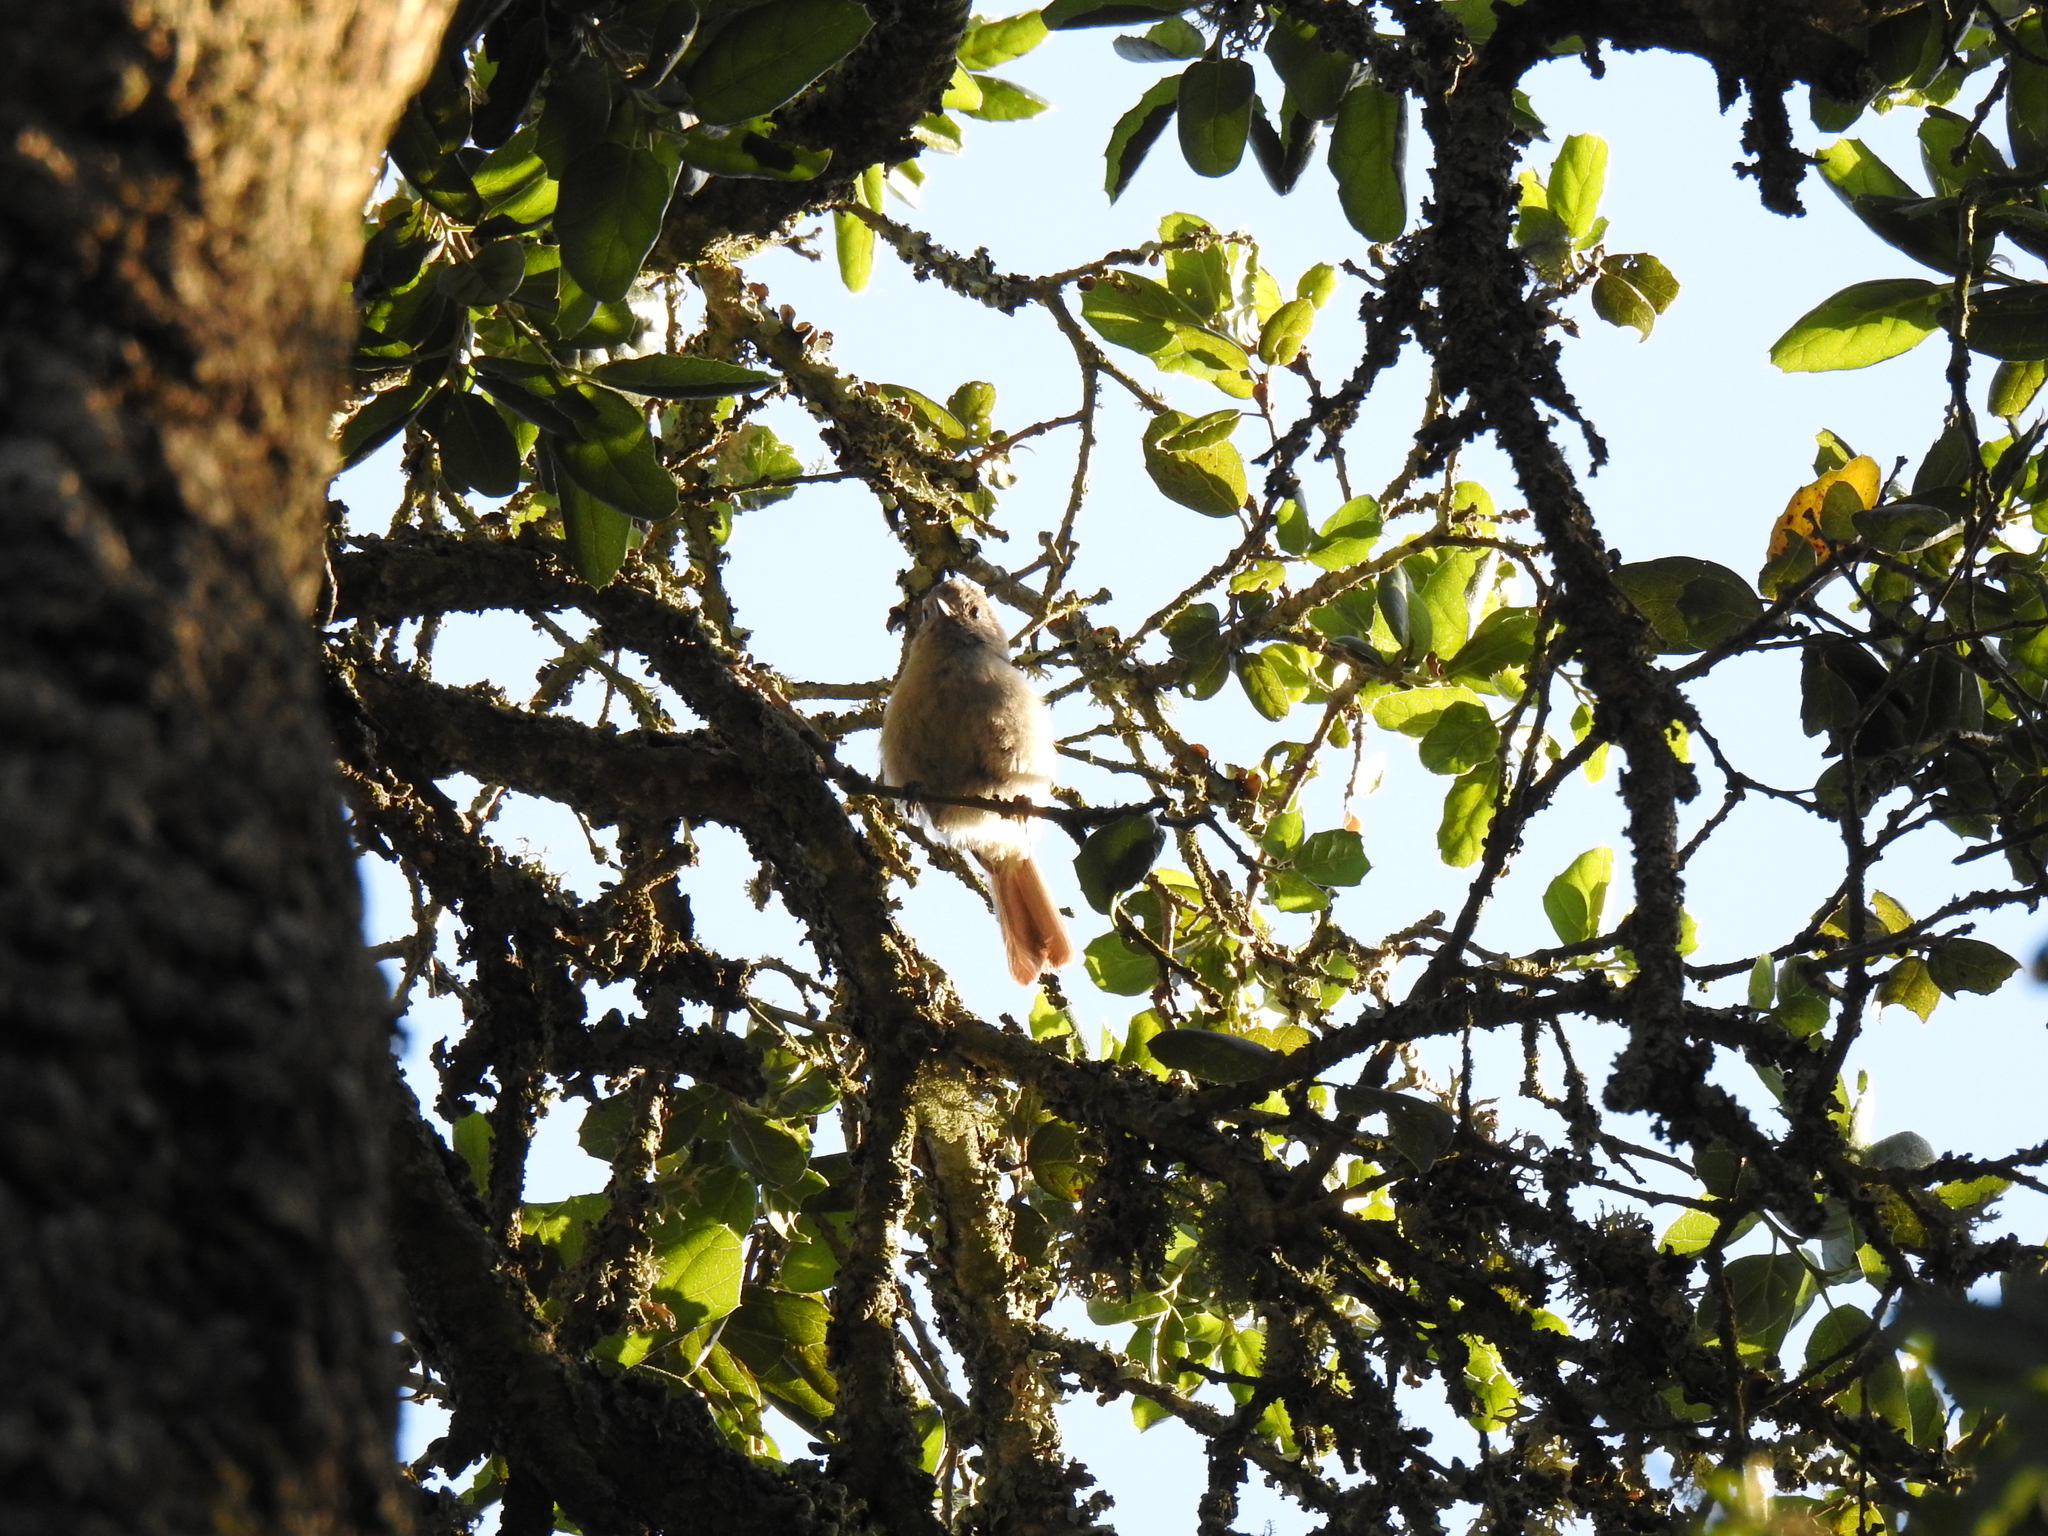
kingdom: Animalia
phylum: Chordata
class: Aves
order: Passeriformes
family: Paridae
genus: Baeolophus
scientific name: Baeolophus inornatus
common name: Oak titmouse
